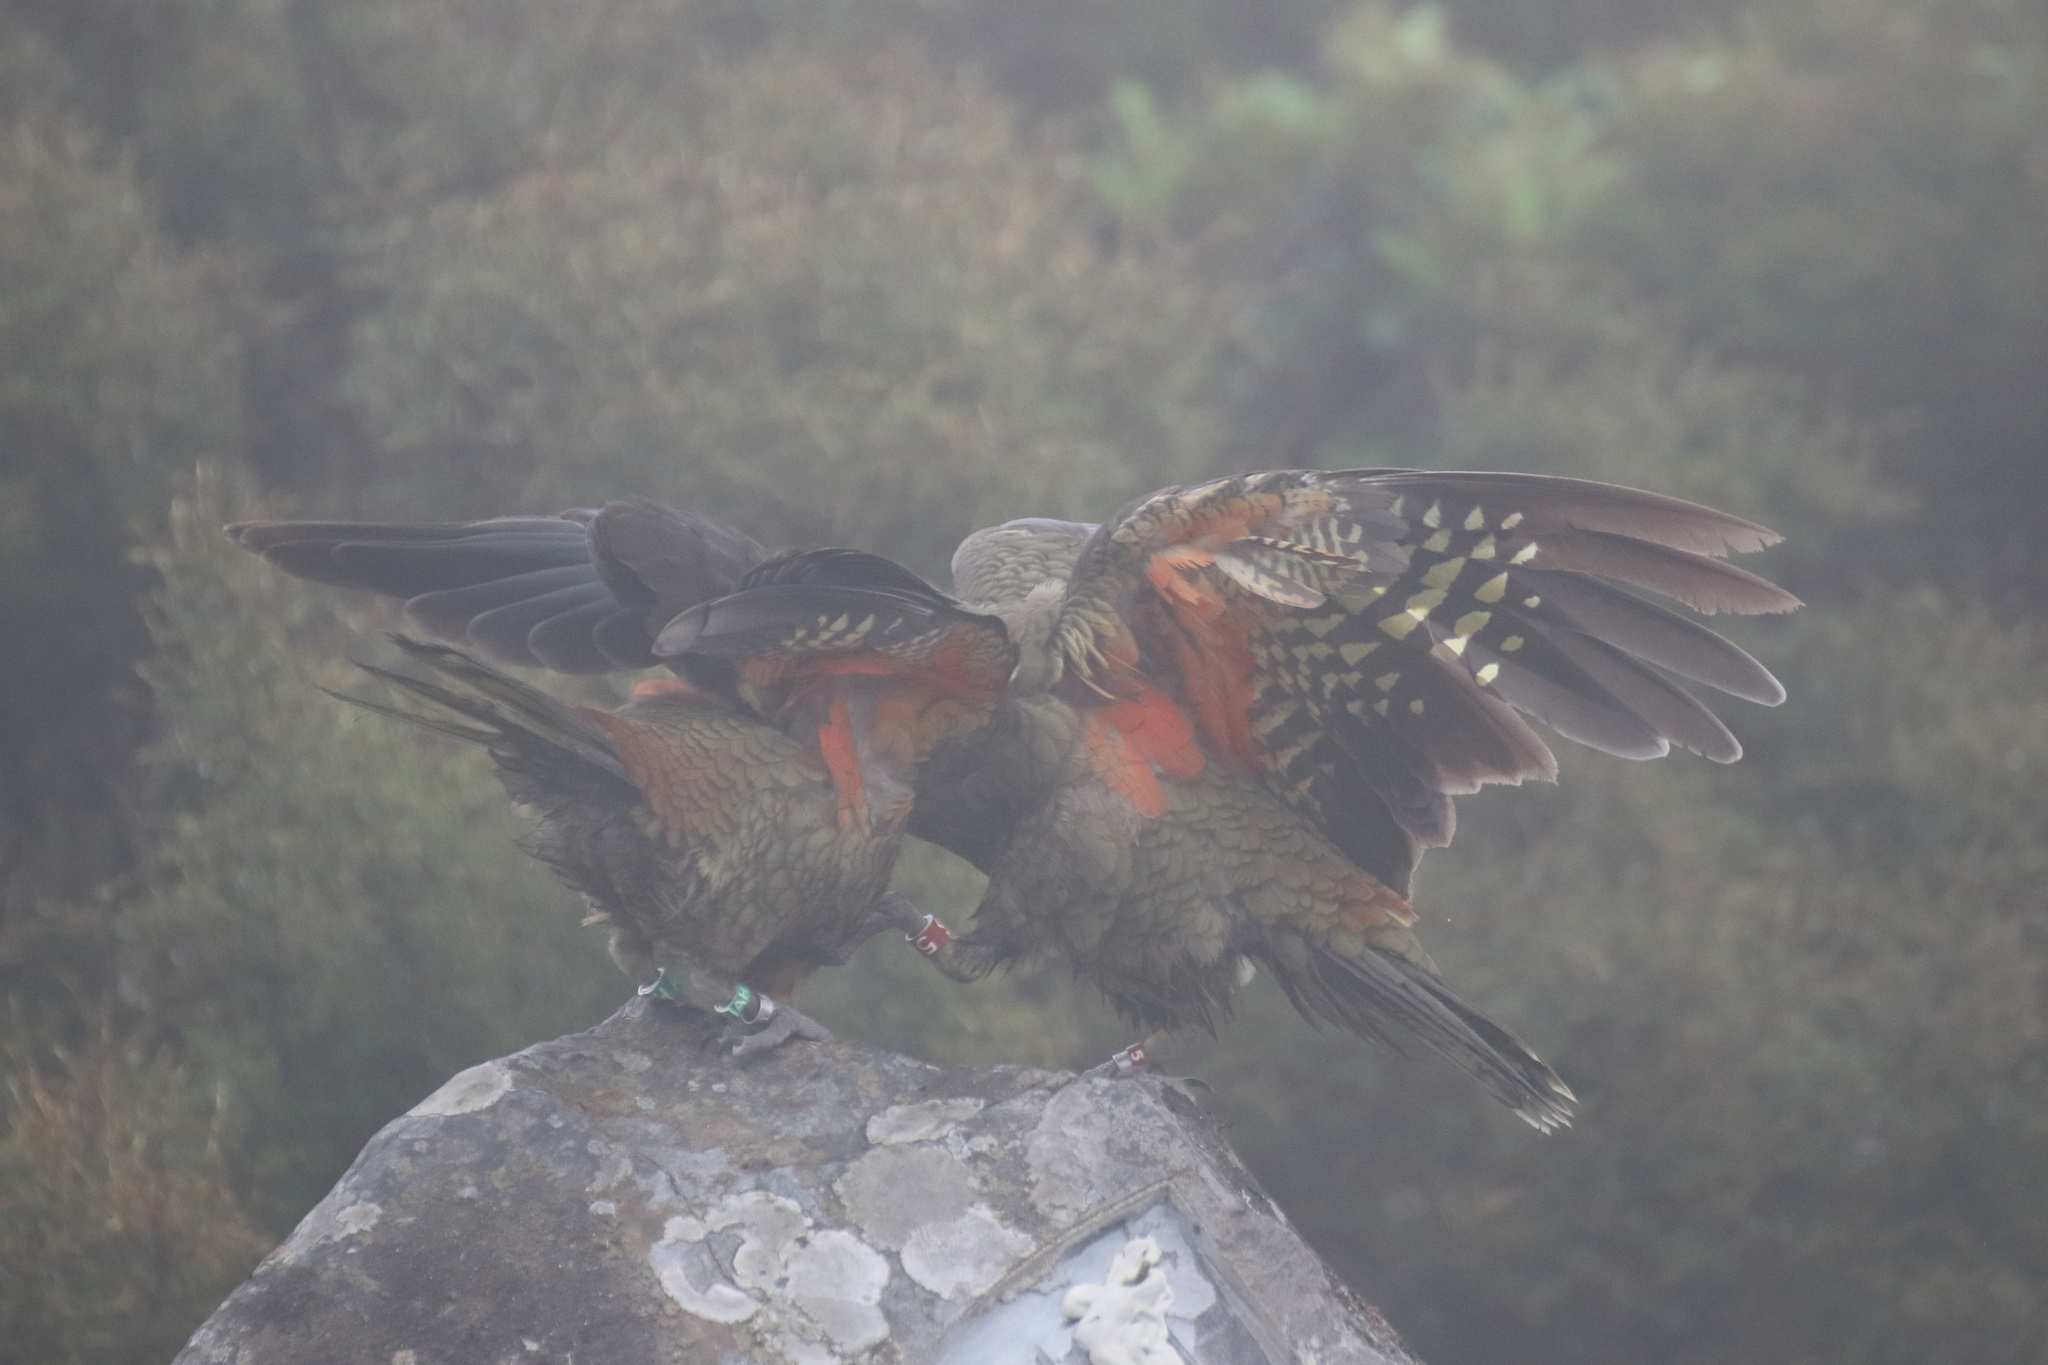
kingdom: Animalia
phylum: Chordata
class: Aves
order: Psittaciformes
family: Psittacidae
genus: Nestor
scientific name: Nestor notabilis
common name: Kea
